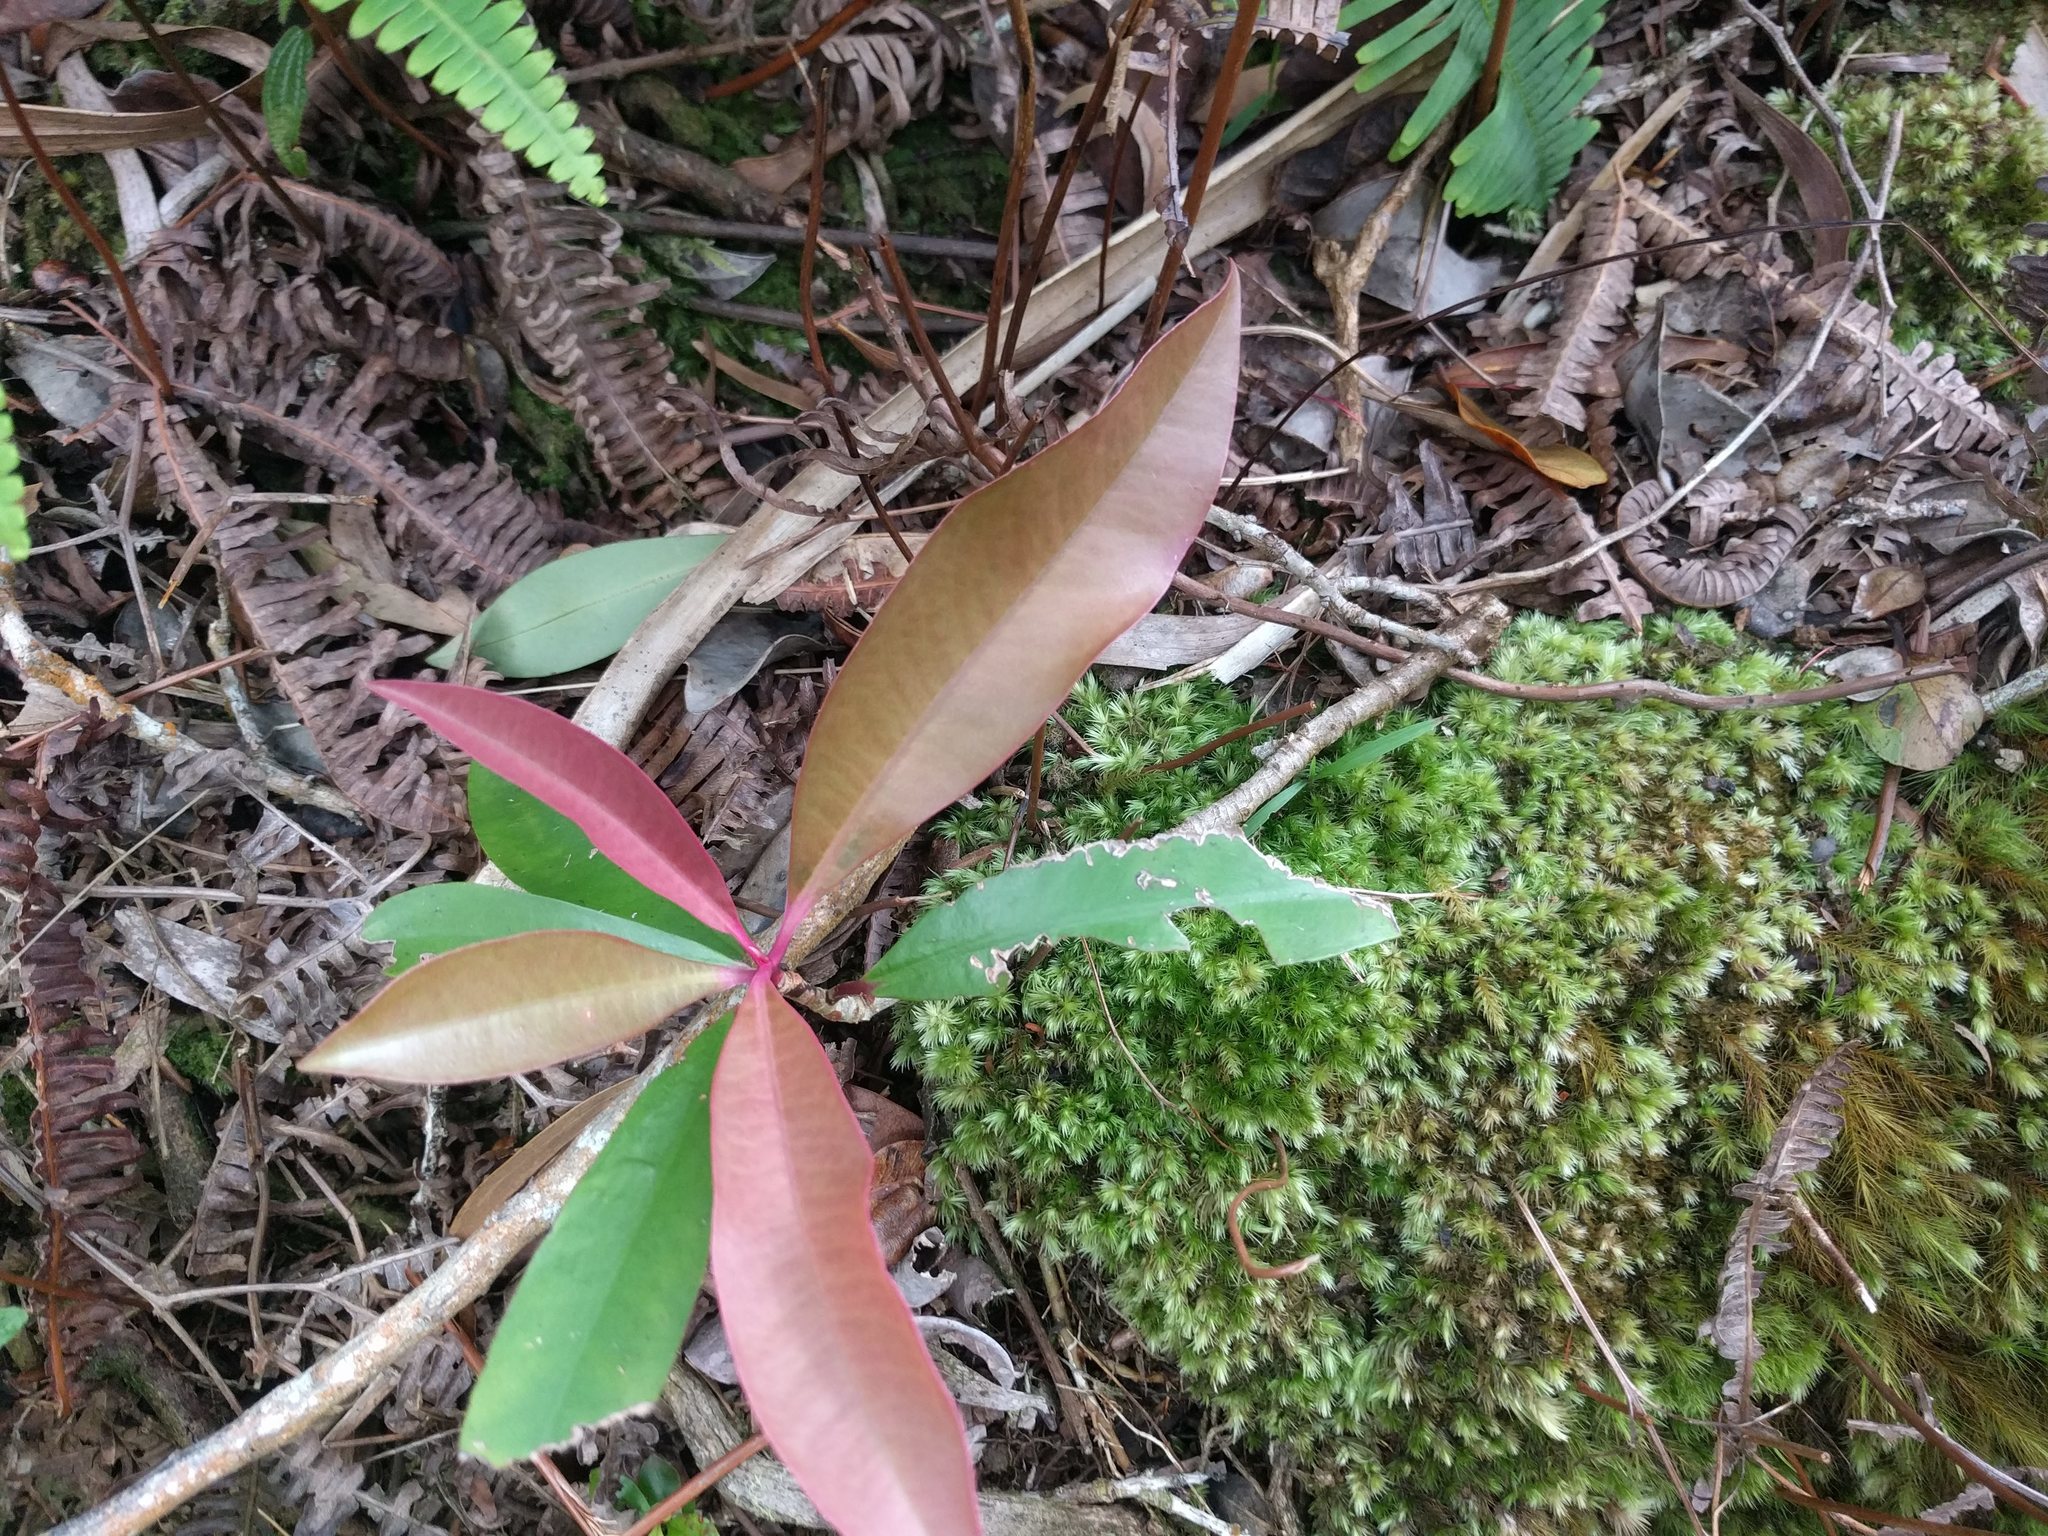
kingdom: Plantae
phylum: Tracheophyta
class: Magnoliopsida
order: Ericales
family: Primulaceae
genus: Ardisia
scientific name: Ardisia elliptica
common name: Shoebutton
